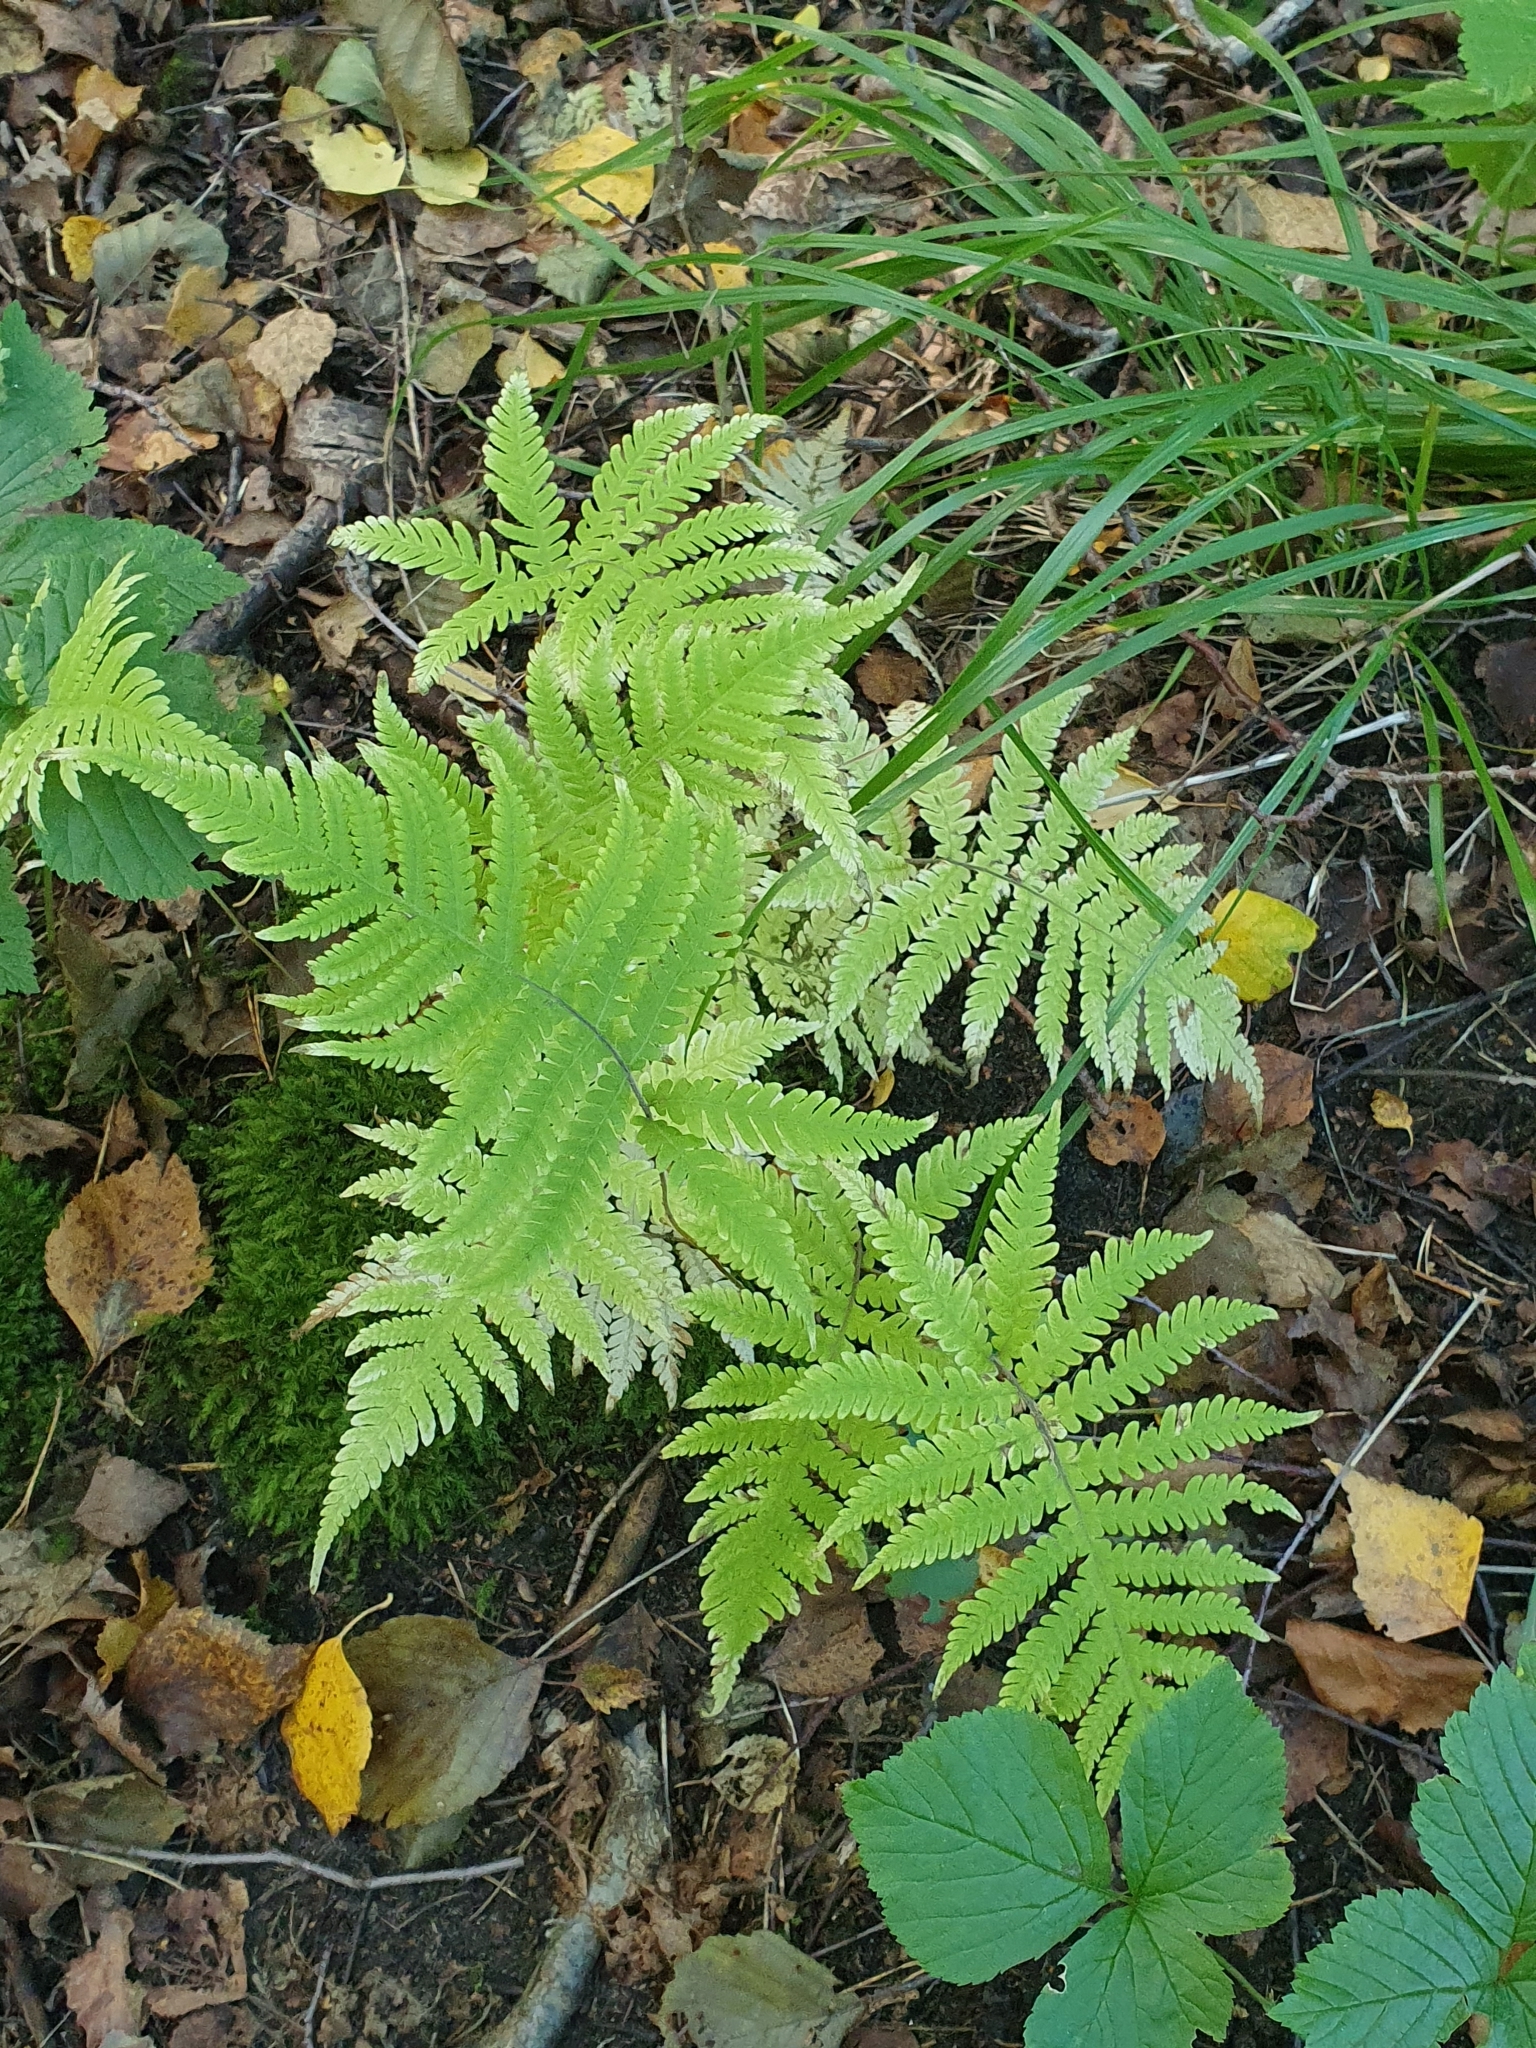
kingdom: Plantae
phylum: Tracheophyta
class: Polypodiopsida
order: Polypodiales
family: Thelypteridaceae
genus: Phegopteris
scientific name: Phegopteris connectilis
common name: Beech fern
